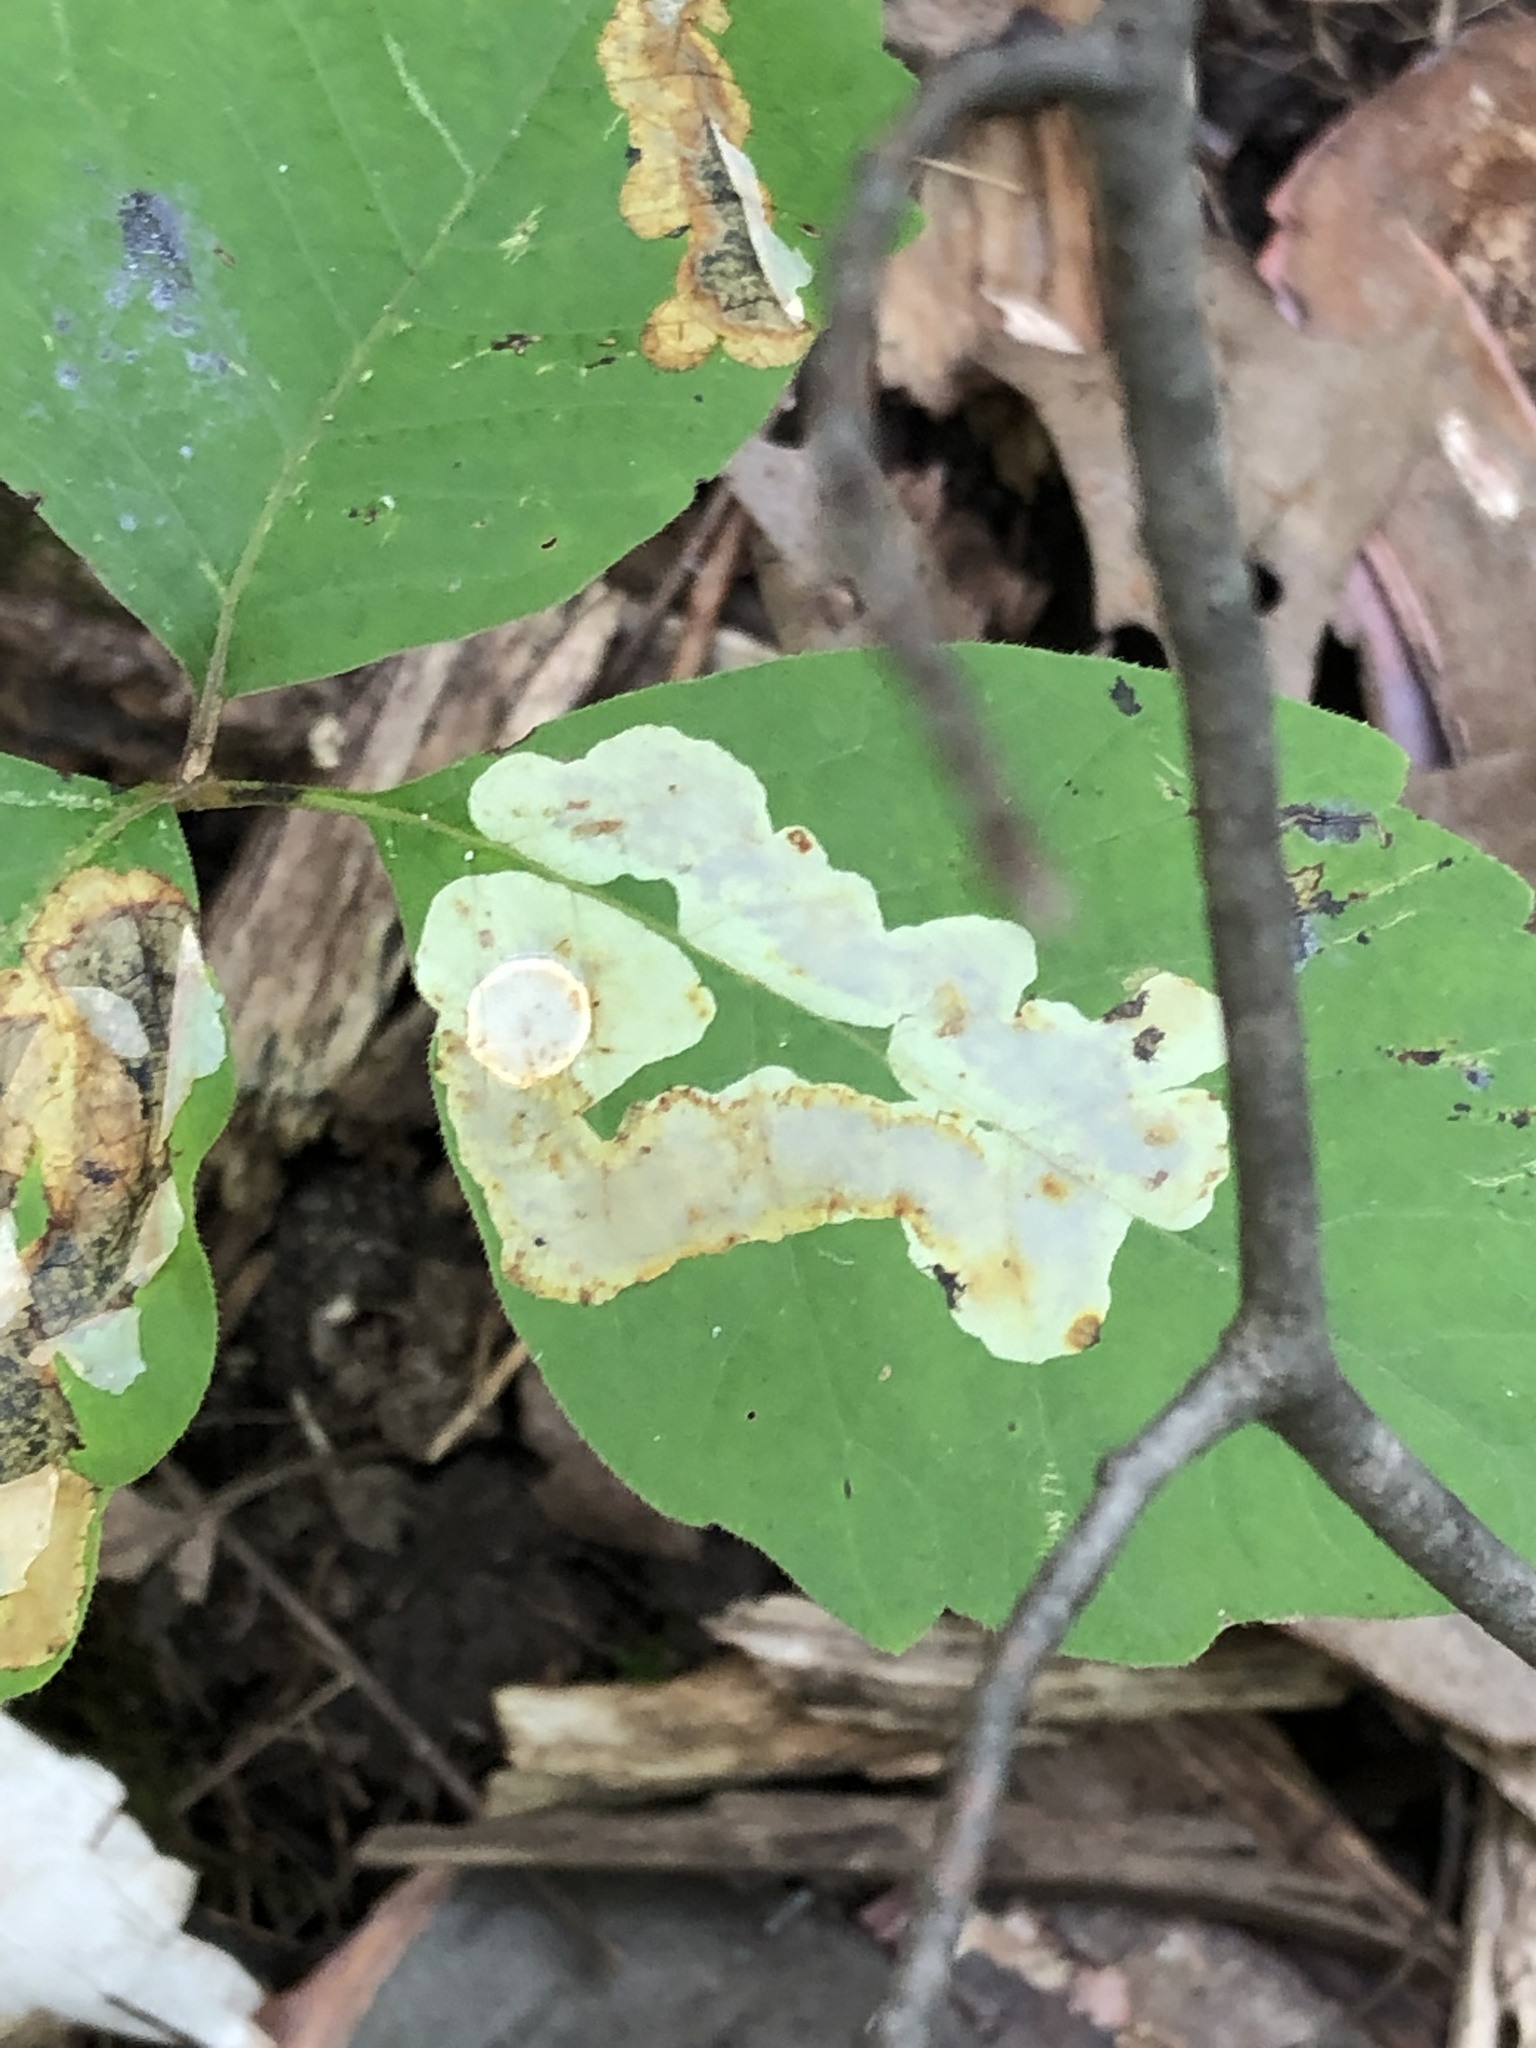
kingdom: Animalia
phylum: Arthropoda
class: Insecta
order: Lepidoptera
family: Gracillariidae
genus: Cameraria
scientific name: Cameraria guttifinitella
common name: Poison ivy leaf-miner moth
